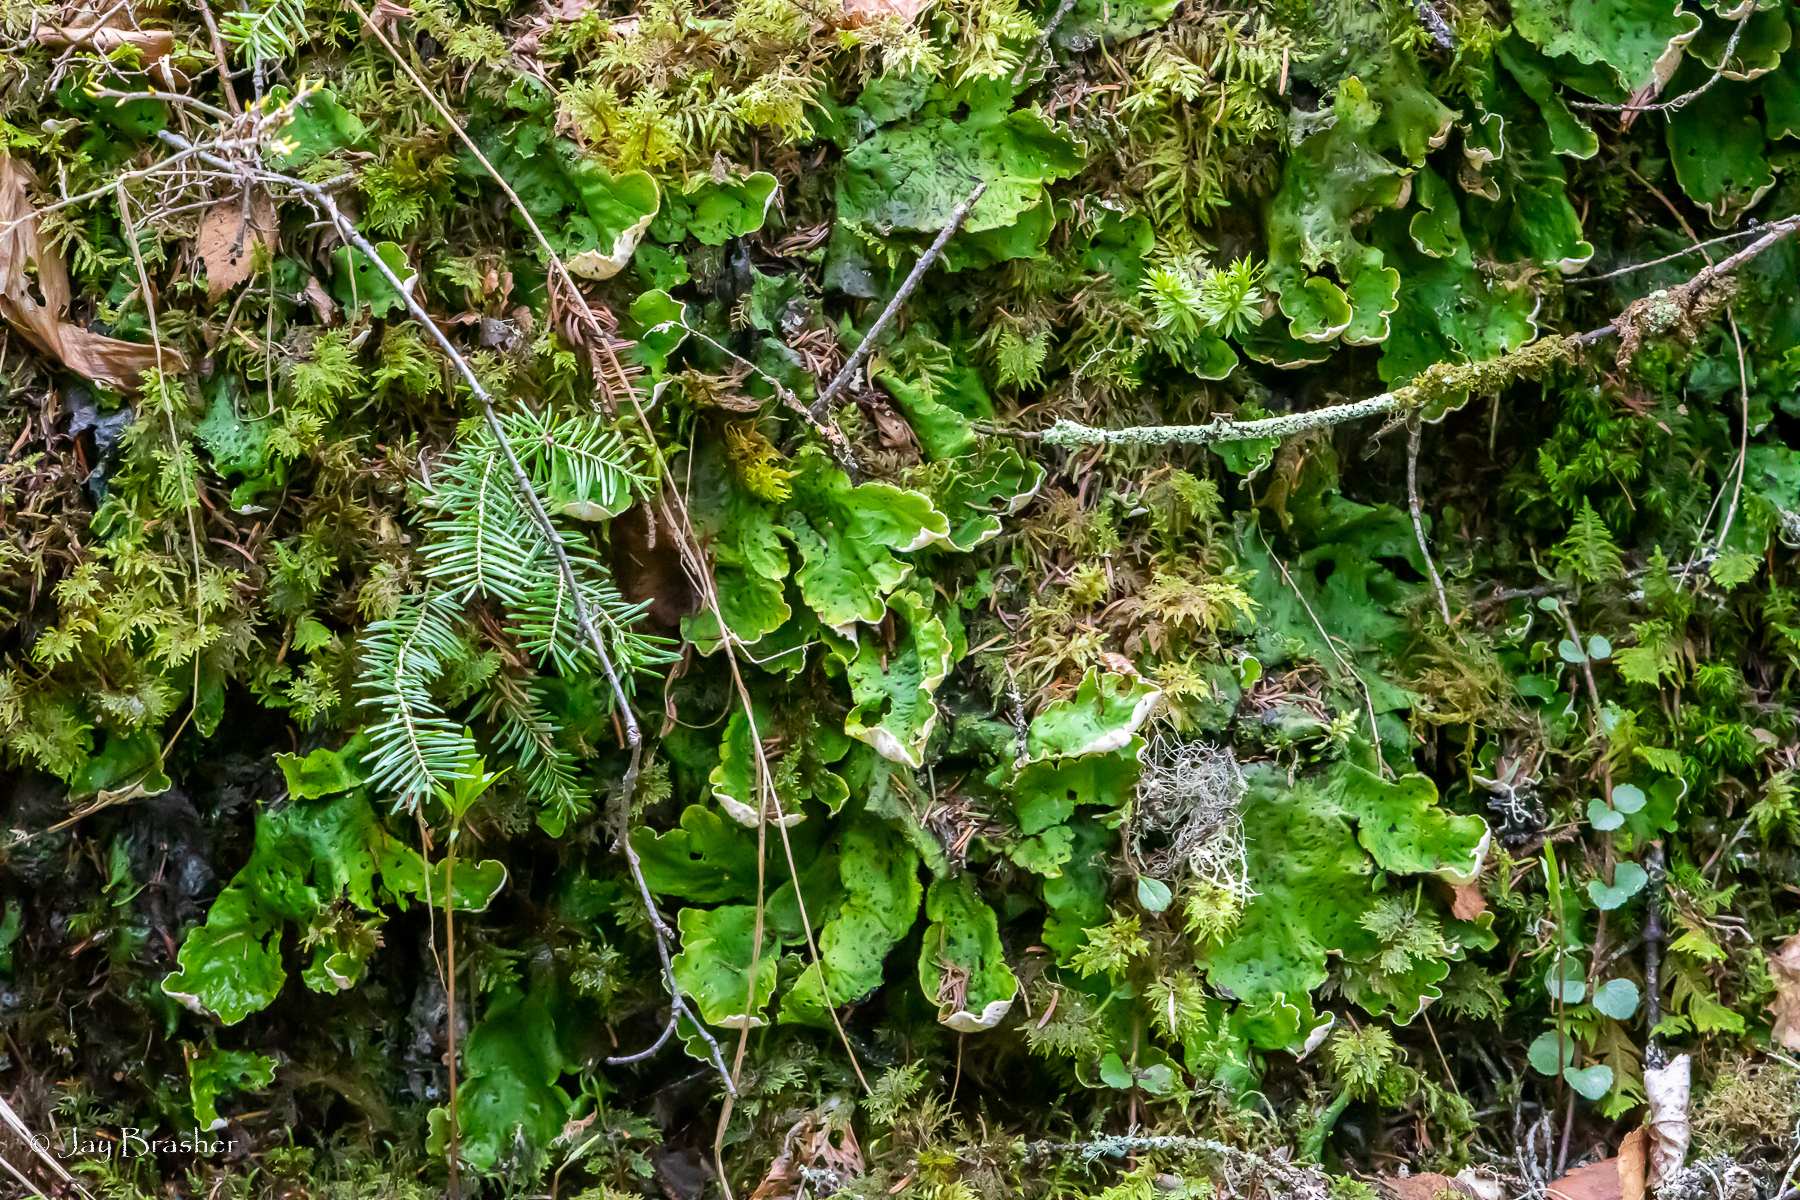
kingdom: Fungi
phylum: Ascomycota
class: Lecanoromycetes
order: Peltigerales
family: Peltigeraceae
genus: Peltigera
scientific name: Peltigera aphthosa
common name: Common freckle pelt lichen
